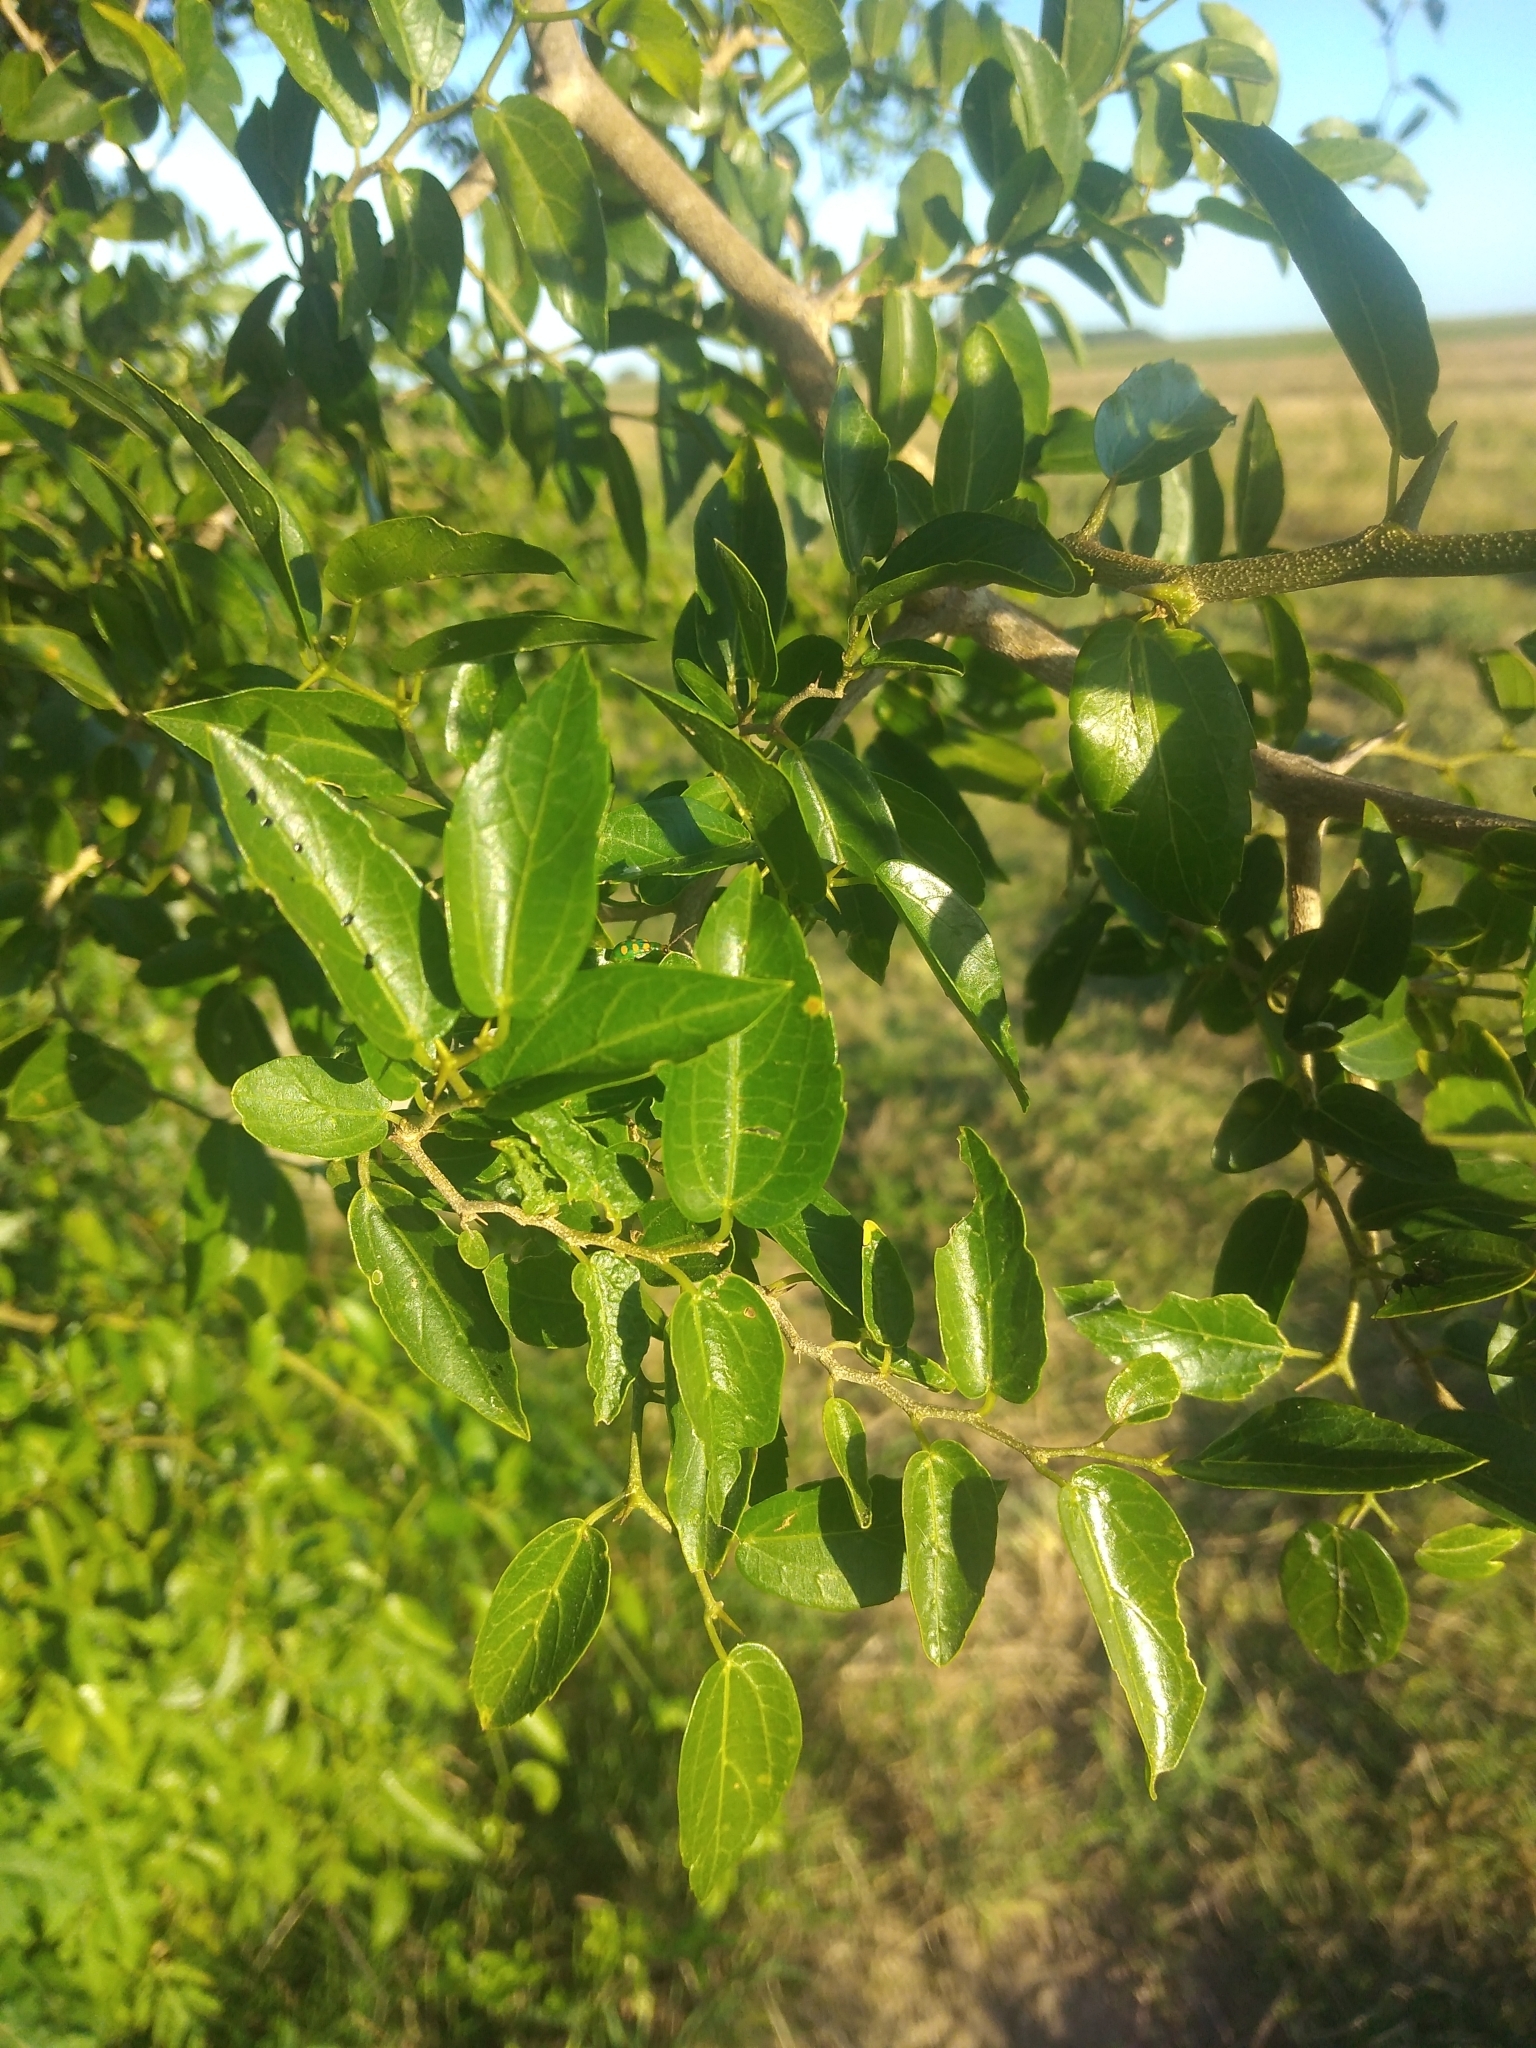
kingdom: Plantae
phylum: Tracheophyta
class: Magnoliopsida
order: Rosales
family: Cannabaceae
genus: Celtis
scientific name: Celtis tala
